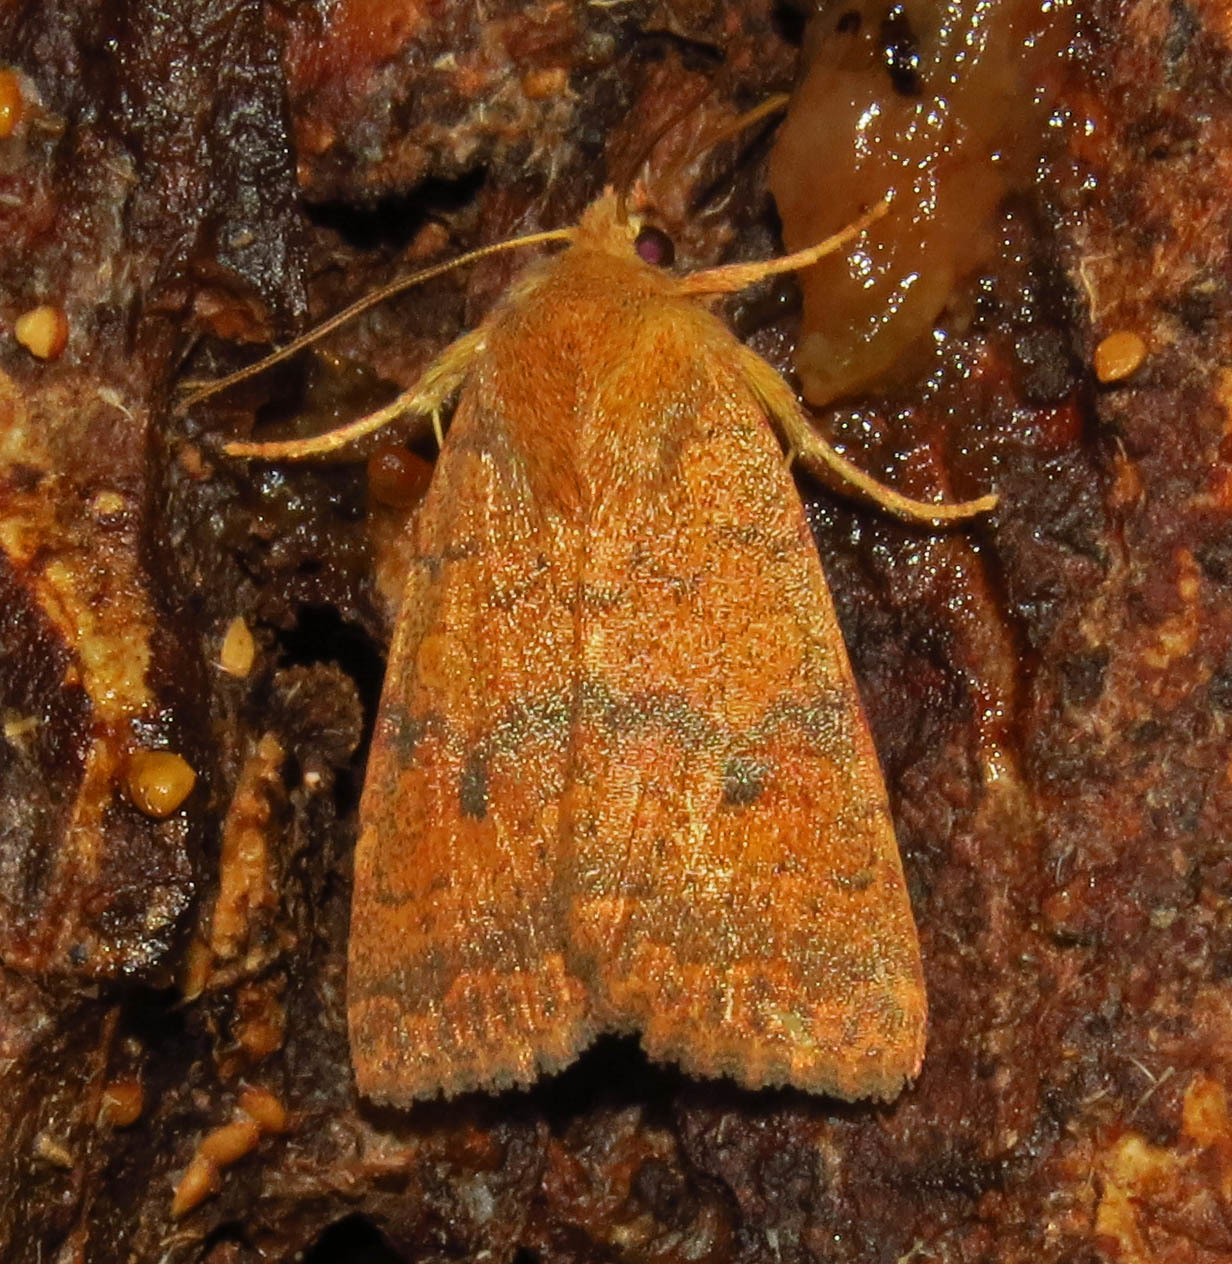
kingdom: Animalia
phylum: Arthropoda
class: Insecta
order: Lepidoptera
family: Noctuidae
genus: Agrochola
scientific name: Agrochola bicolorago
